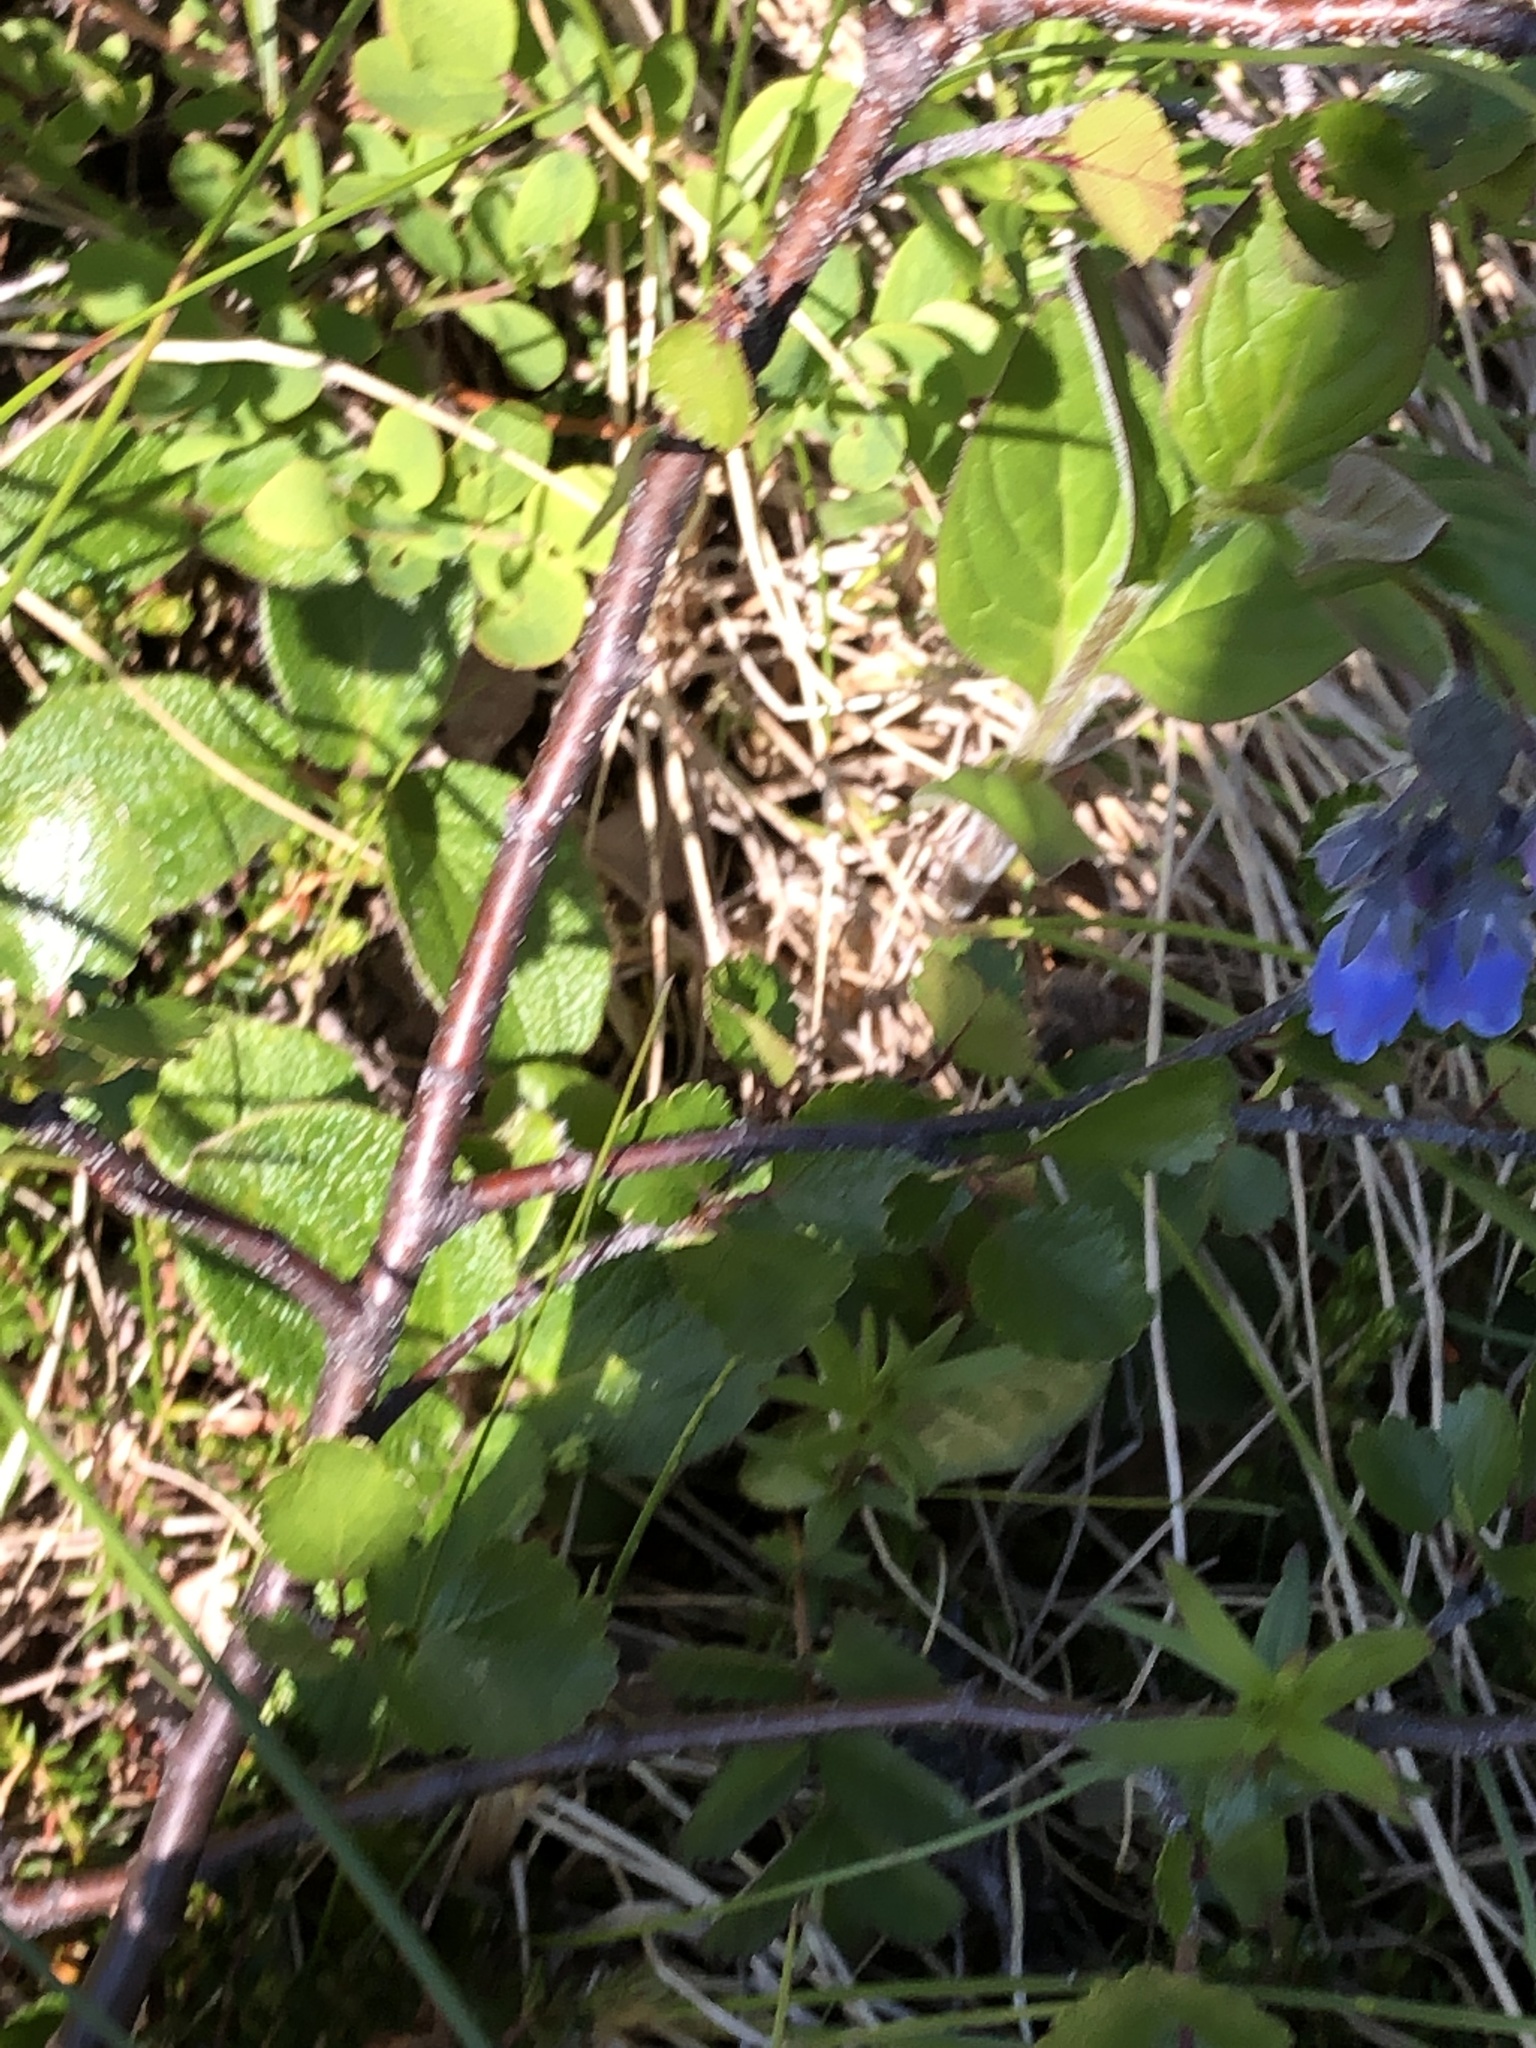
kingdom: Plantae
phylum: Tracheophyta
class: Magnoliopsida
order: Boraginales
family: Boraginaceae
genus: Mertensia
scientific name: Mertensia paniculata
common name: Panicled bluebells
